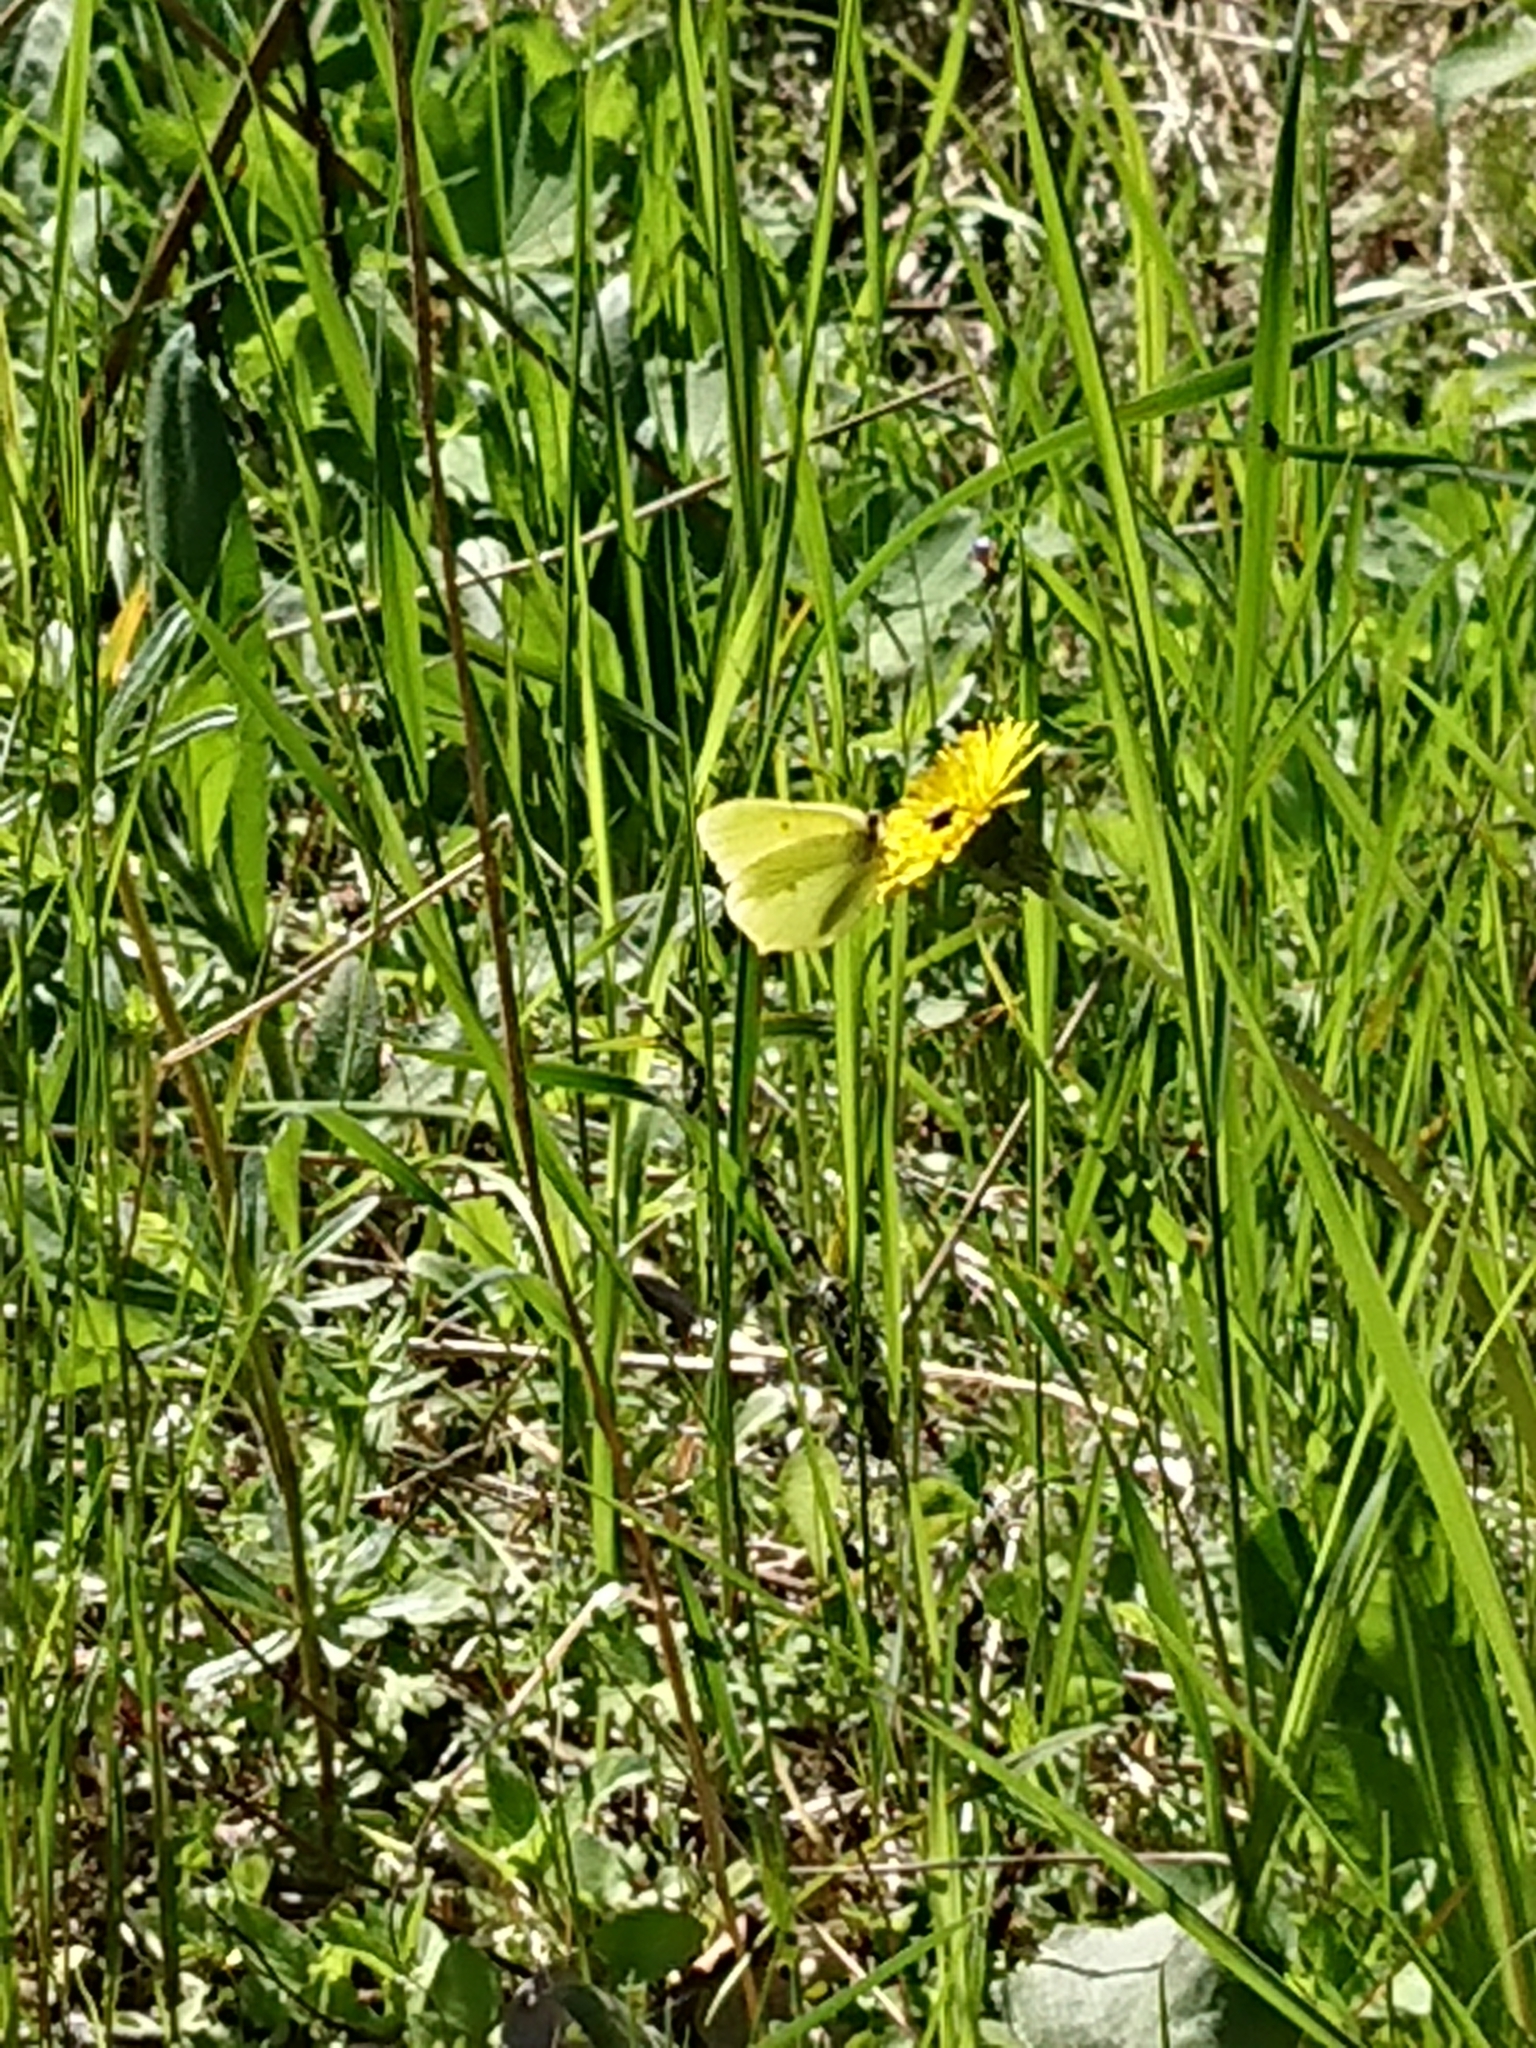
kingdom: Animalia
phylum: Arthropoda
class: Insecta
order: Lepidoptera
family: Pieridae
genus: Gonepteryx
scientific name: Gonepteryx rhamni
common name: Brimstone
